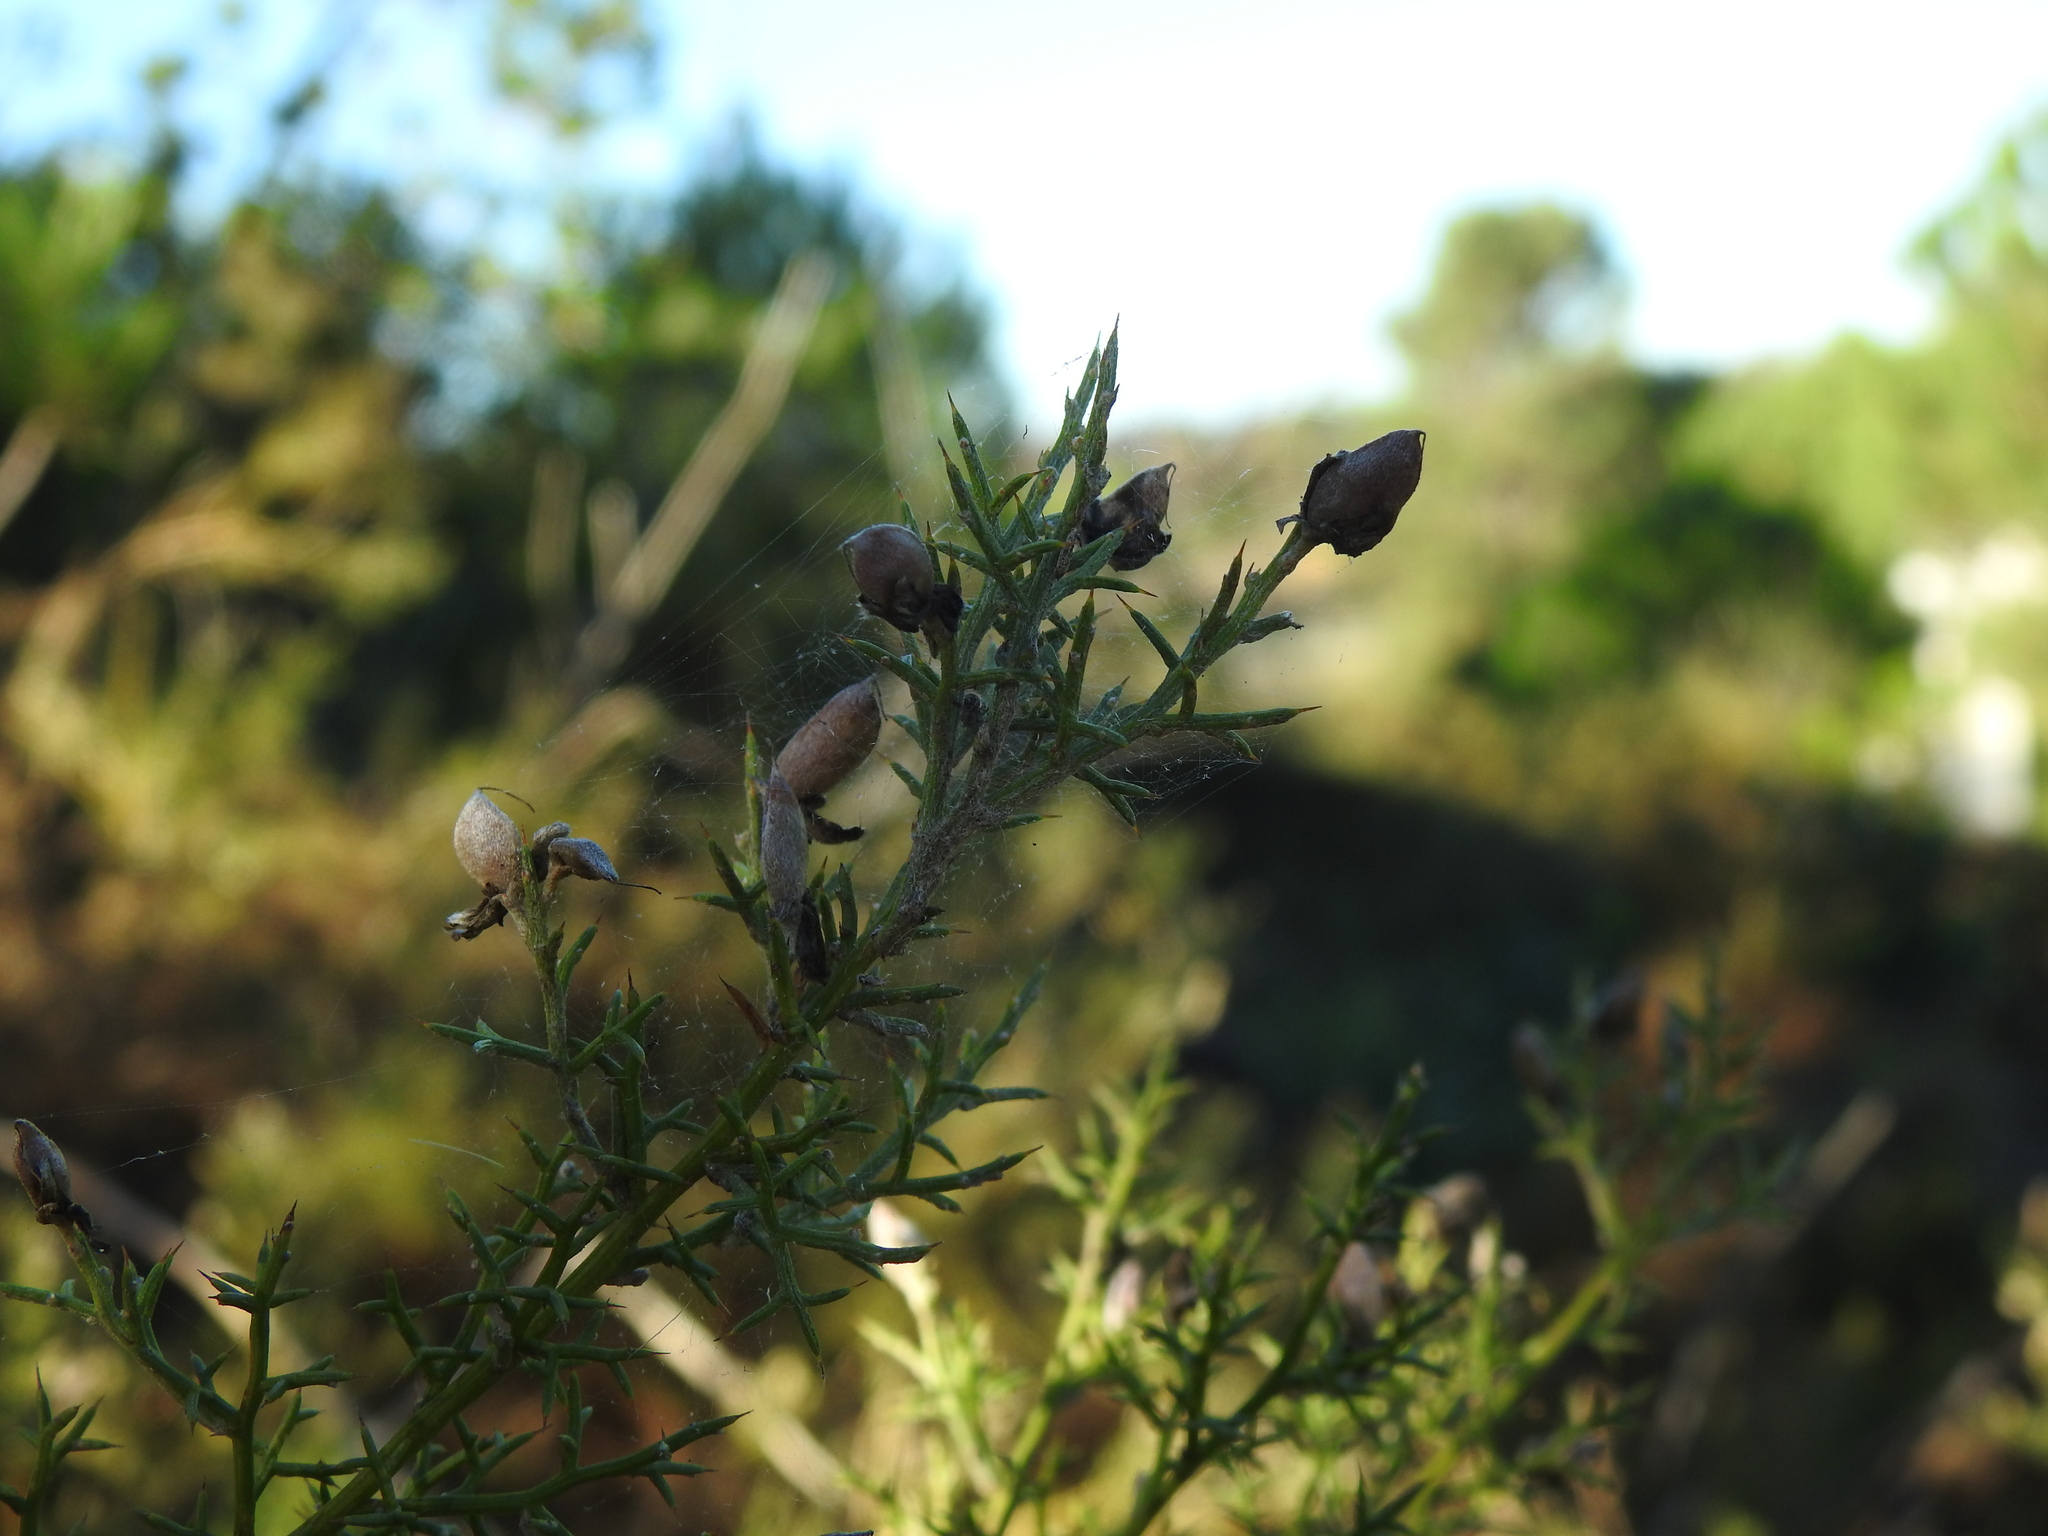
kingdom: Plantae
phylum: Tracheophyta
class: Magnoliopsida
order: Fabales
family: Fabaceae
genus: Stauracanthus
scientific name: Stauracanthus boivinii
